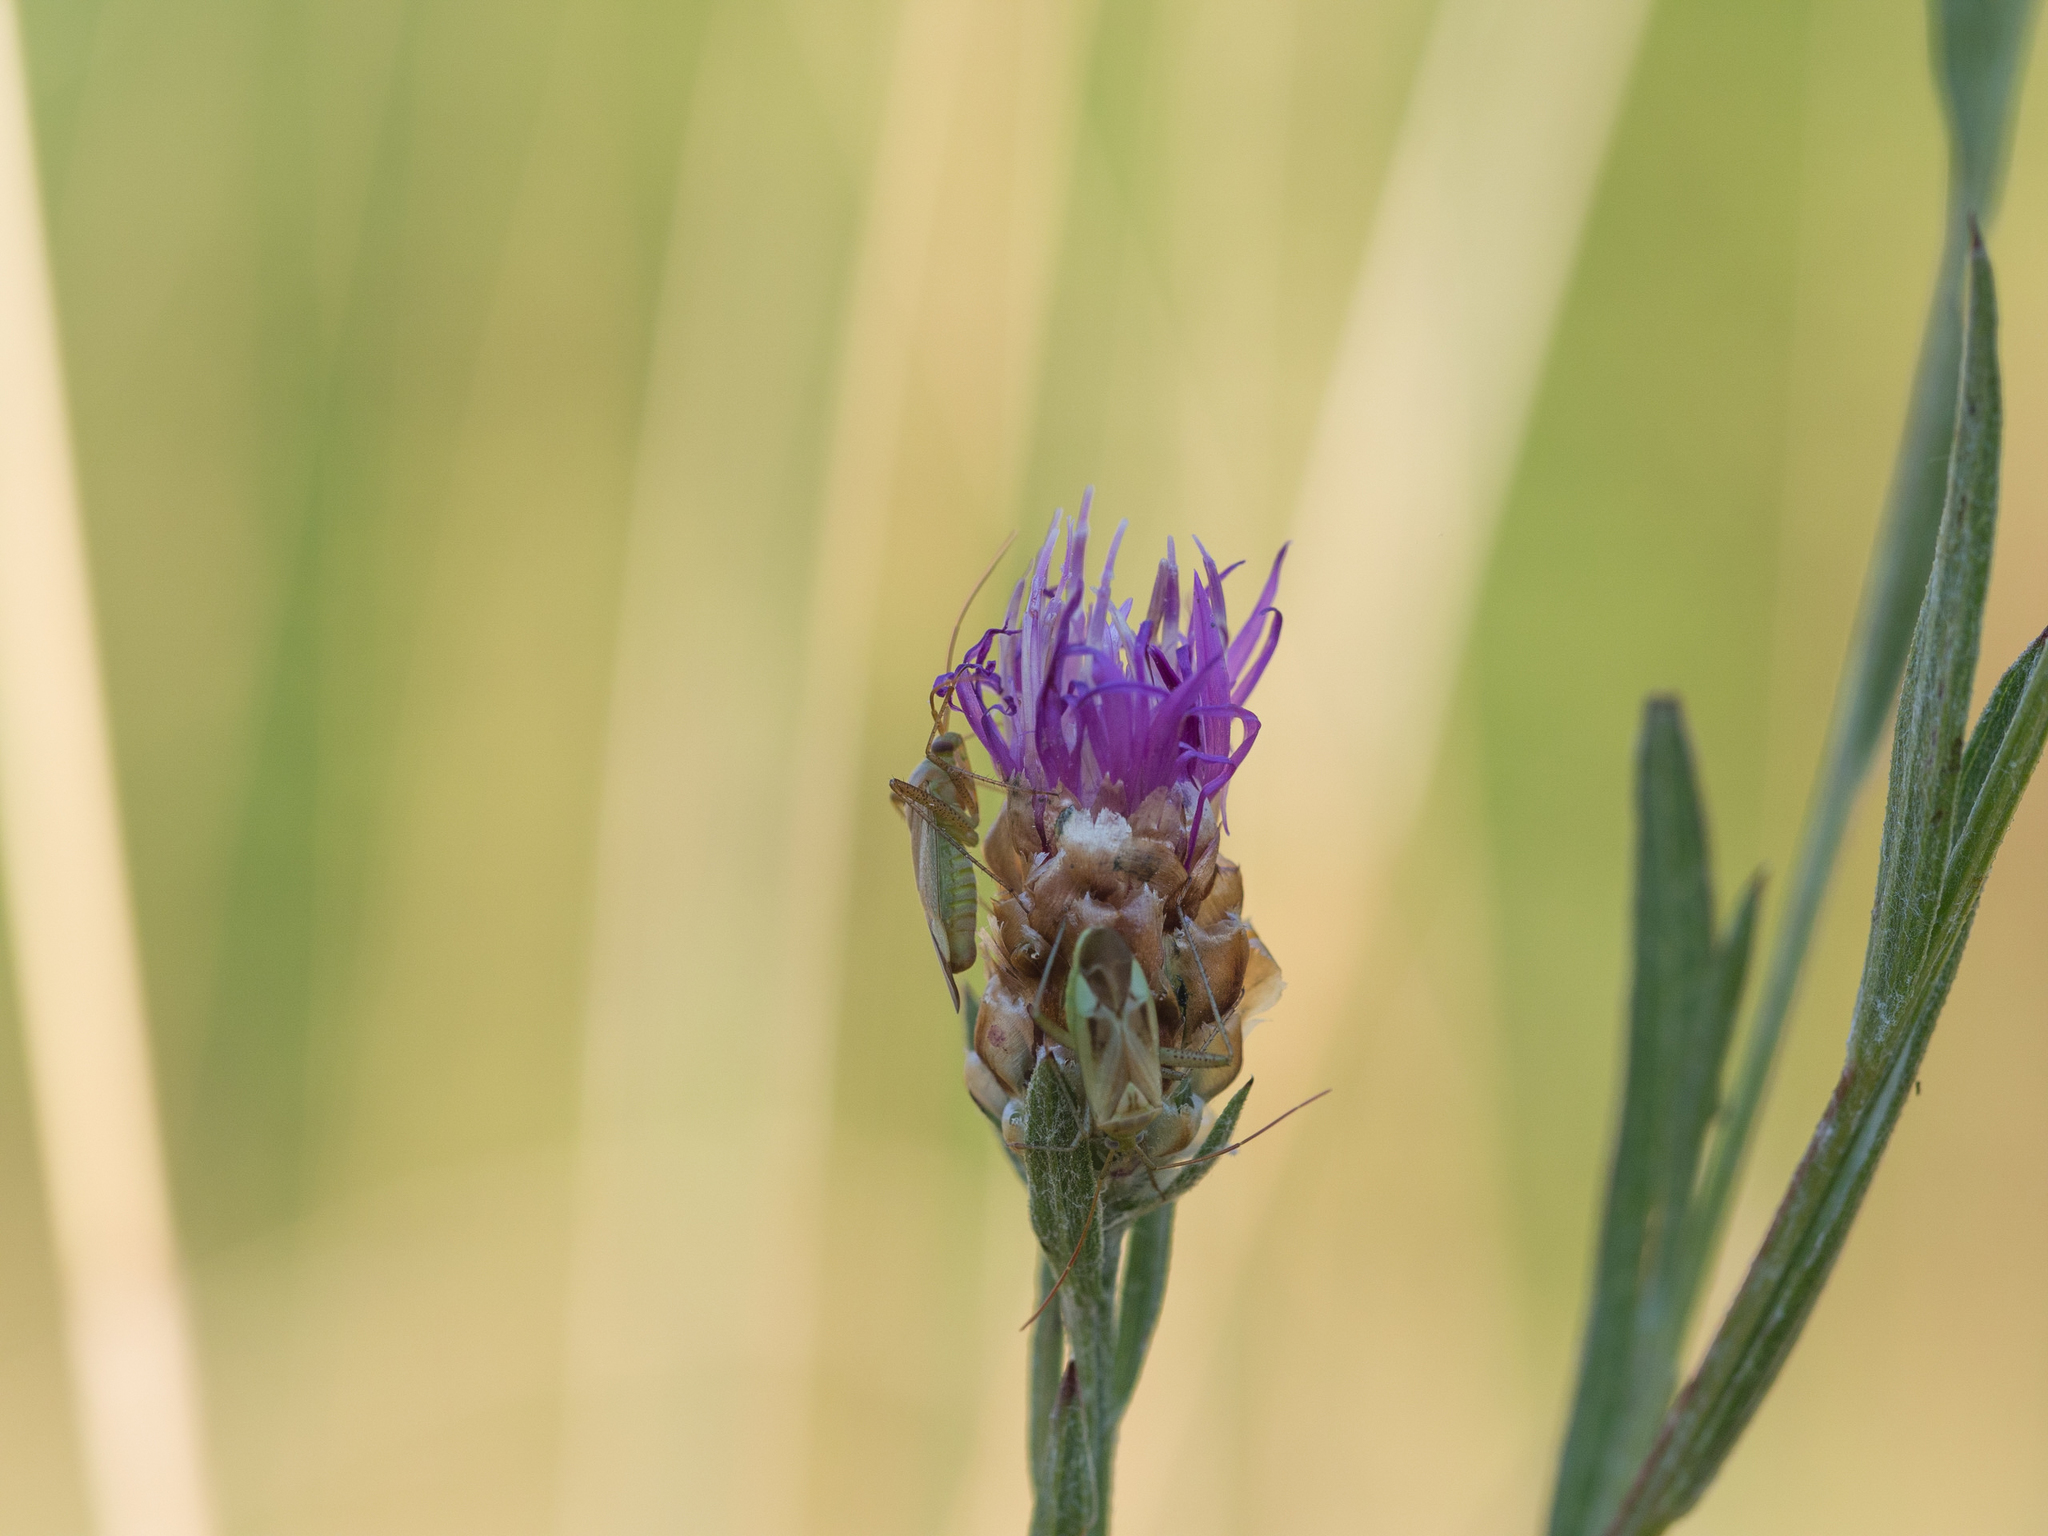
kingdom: Animalia
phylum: Arthropoda
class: Insecta
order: Hemiptera
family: Miridae
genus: Adelphocoris
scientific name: Adelphocoris lineolatus
